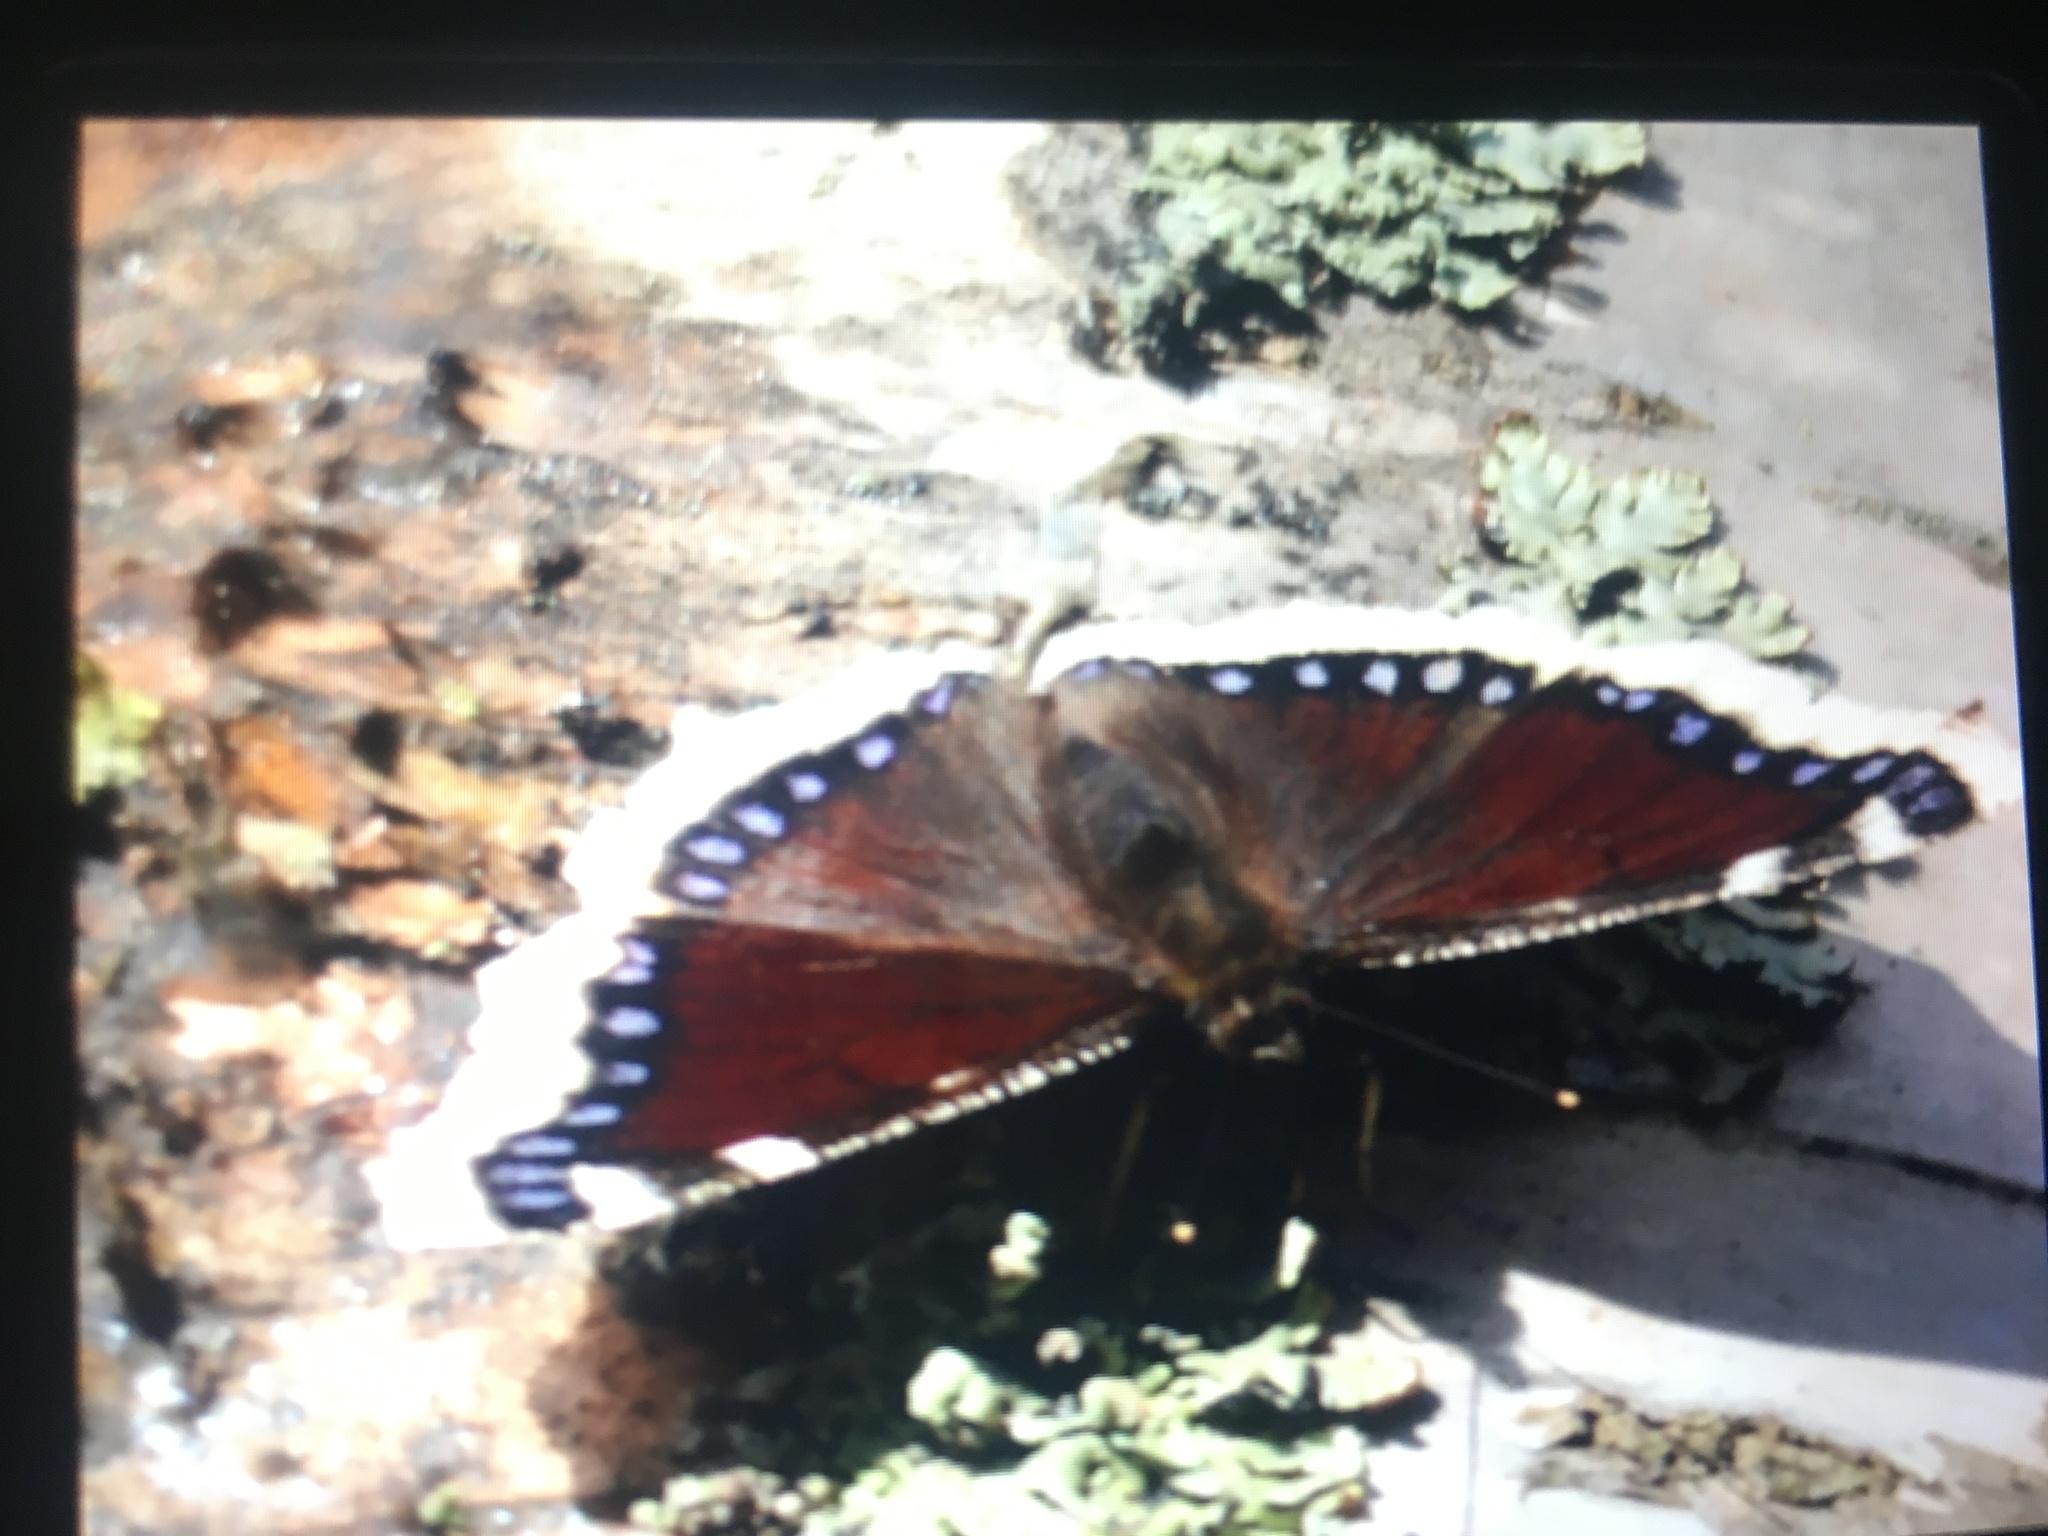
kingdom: Animalia
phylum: Arthropoda
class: Insecta
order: Lepidoptera
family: Nymphalidae
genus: Nymphalis
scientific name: Nymphalis antiopa
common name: Camberwell beauty
